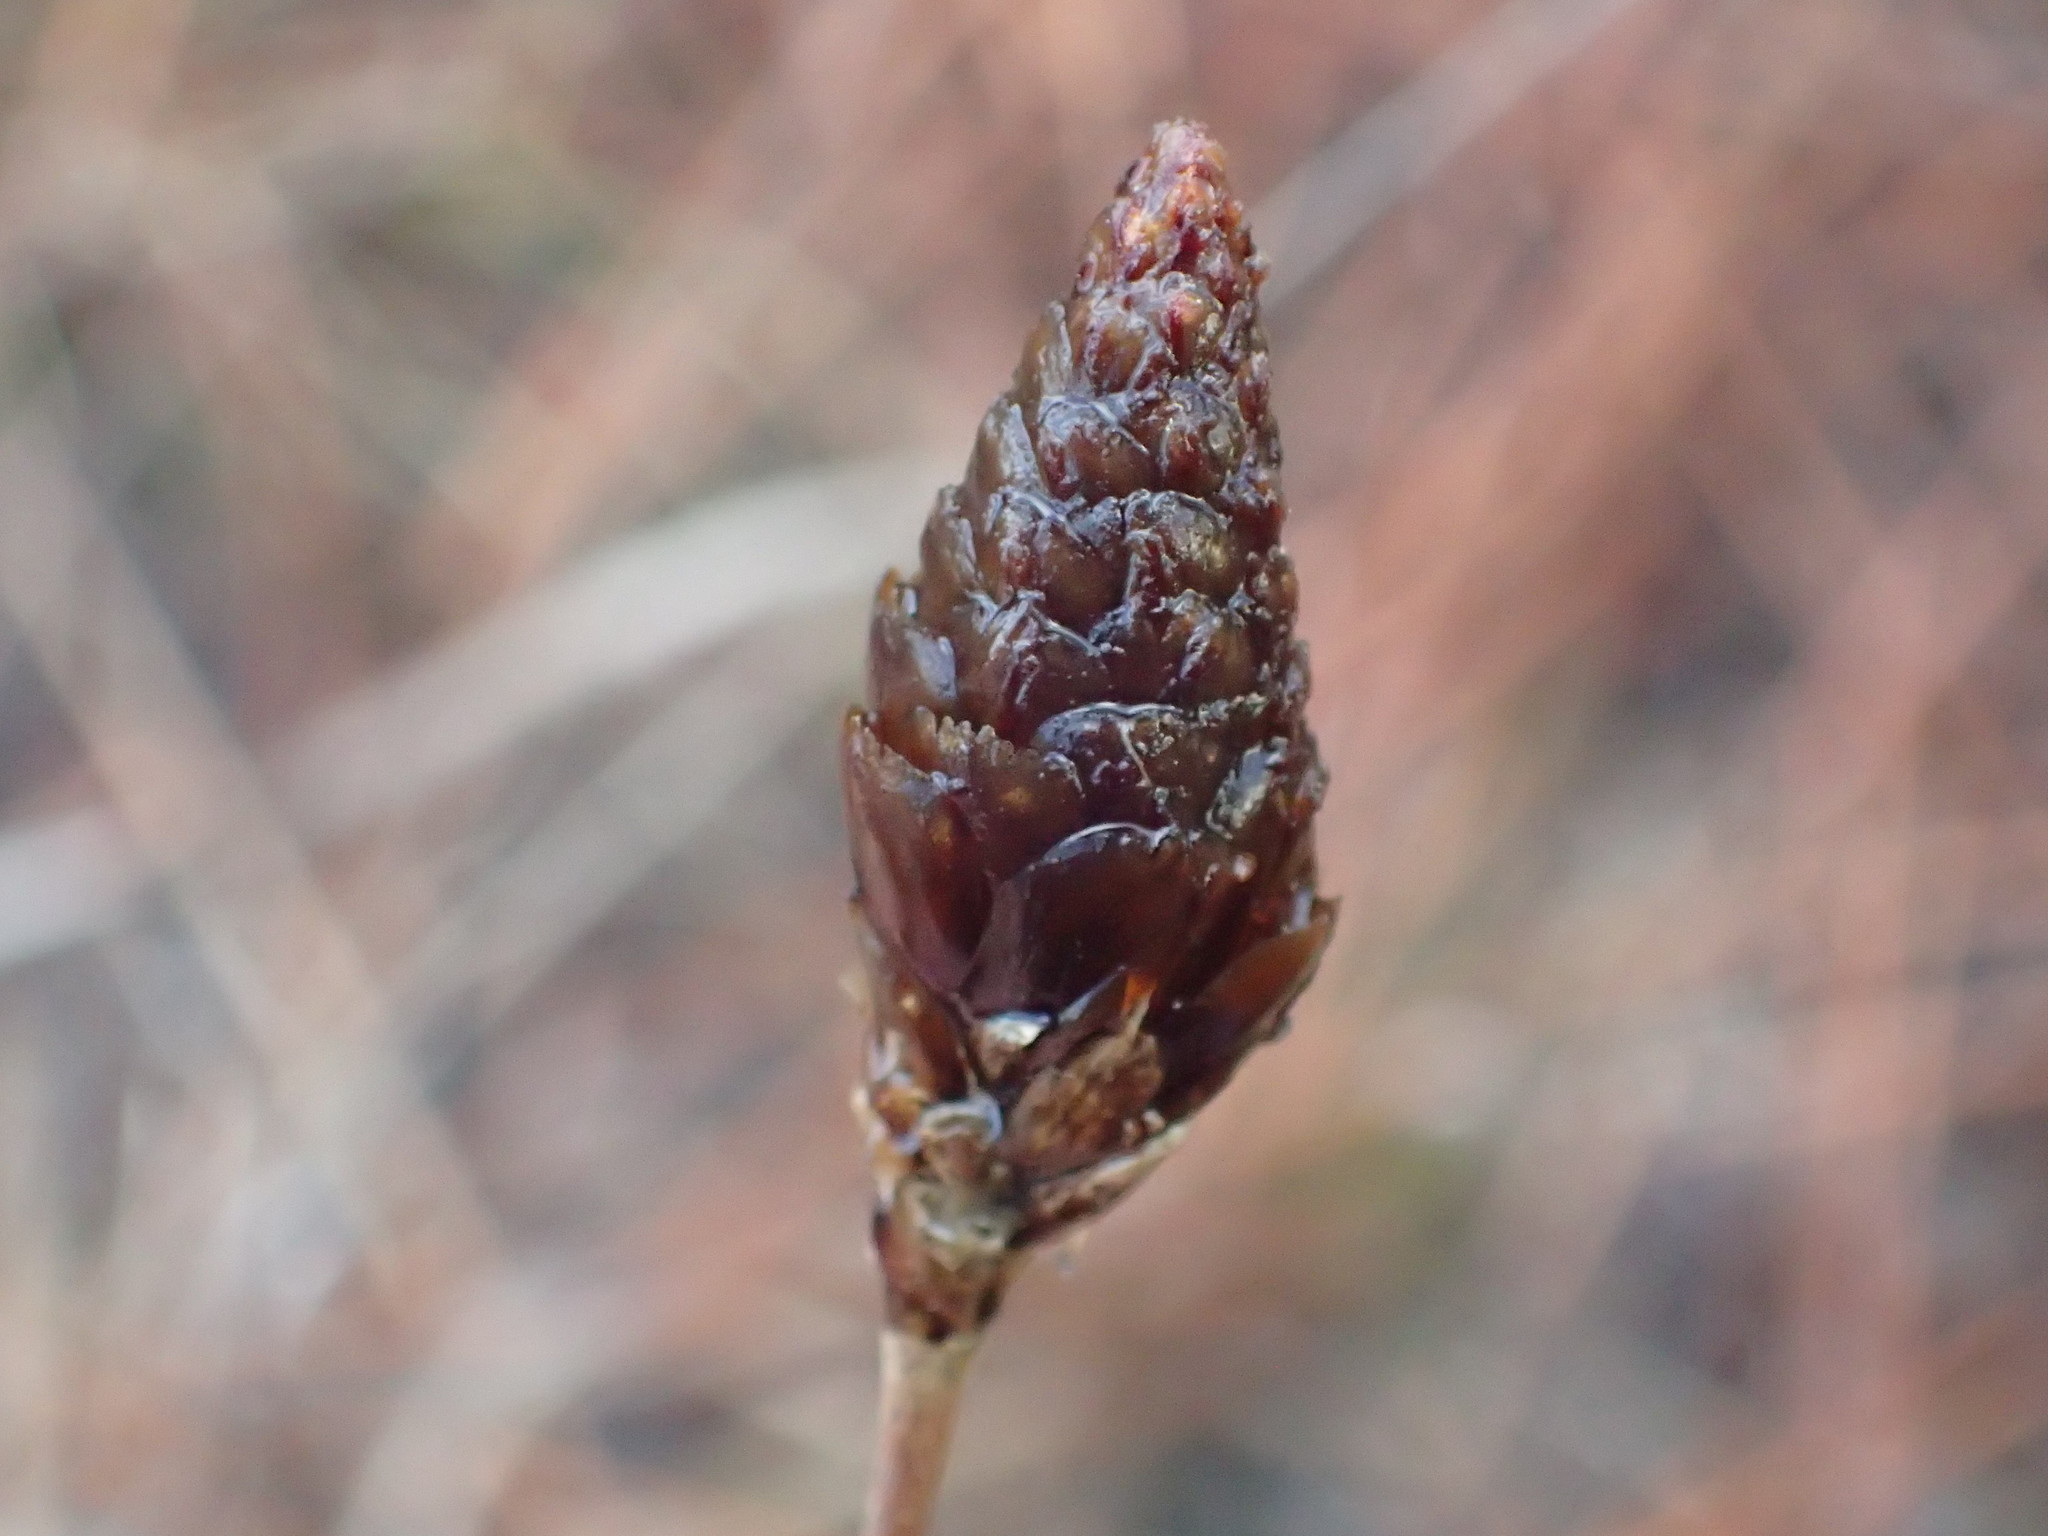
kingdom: Plantae
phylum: Tracheophyta
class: Liliopsida
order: Poales
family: Xyridaceae
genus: Xyris
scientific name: Xyris caroliniana
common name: Carolina yellow-eyed-grass
